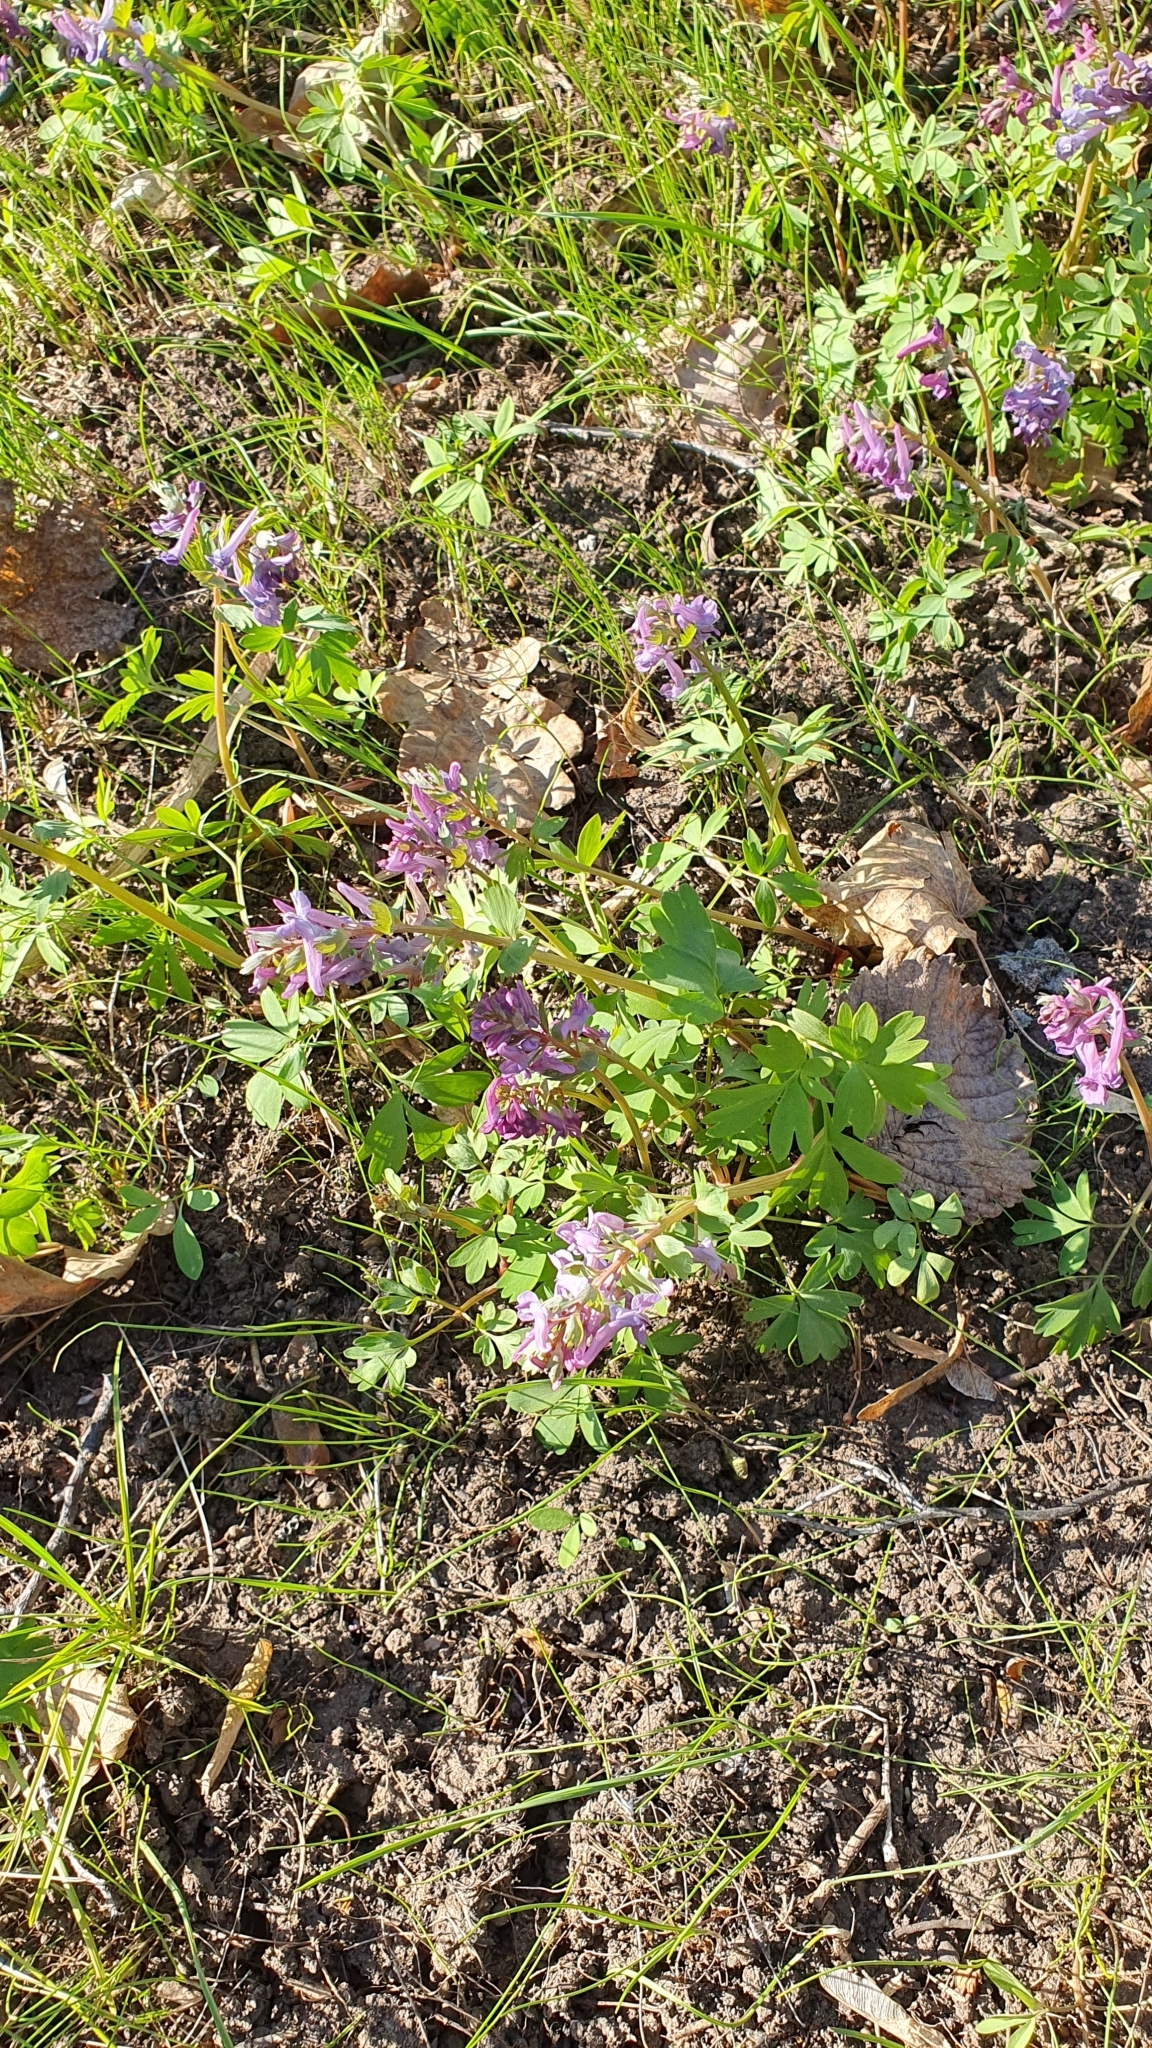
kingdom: Plantae
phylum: Tracheophyta
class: Magnoliopsida
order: Ranunculales
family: Papaveraceae
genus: Corydalis
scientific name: Corydalis solida
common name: Bird-in-a-bush
